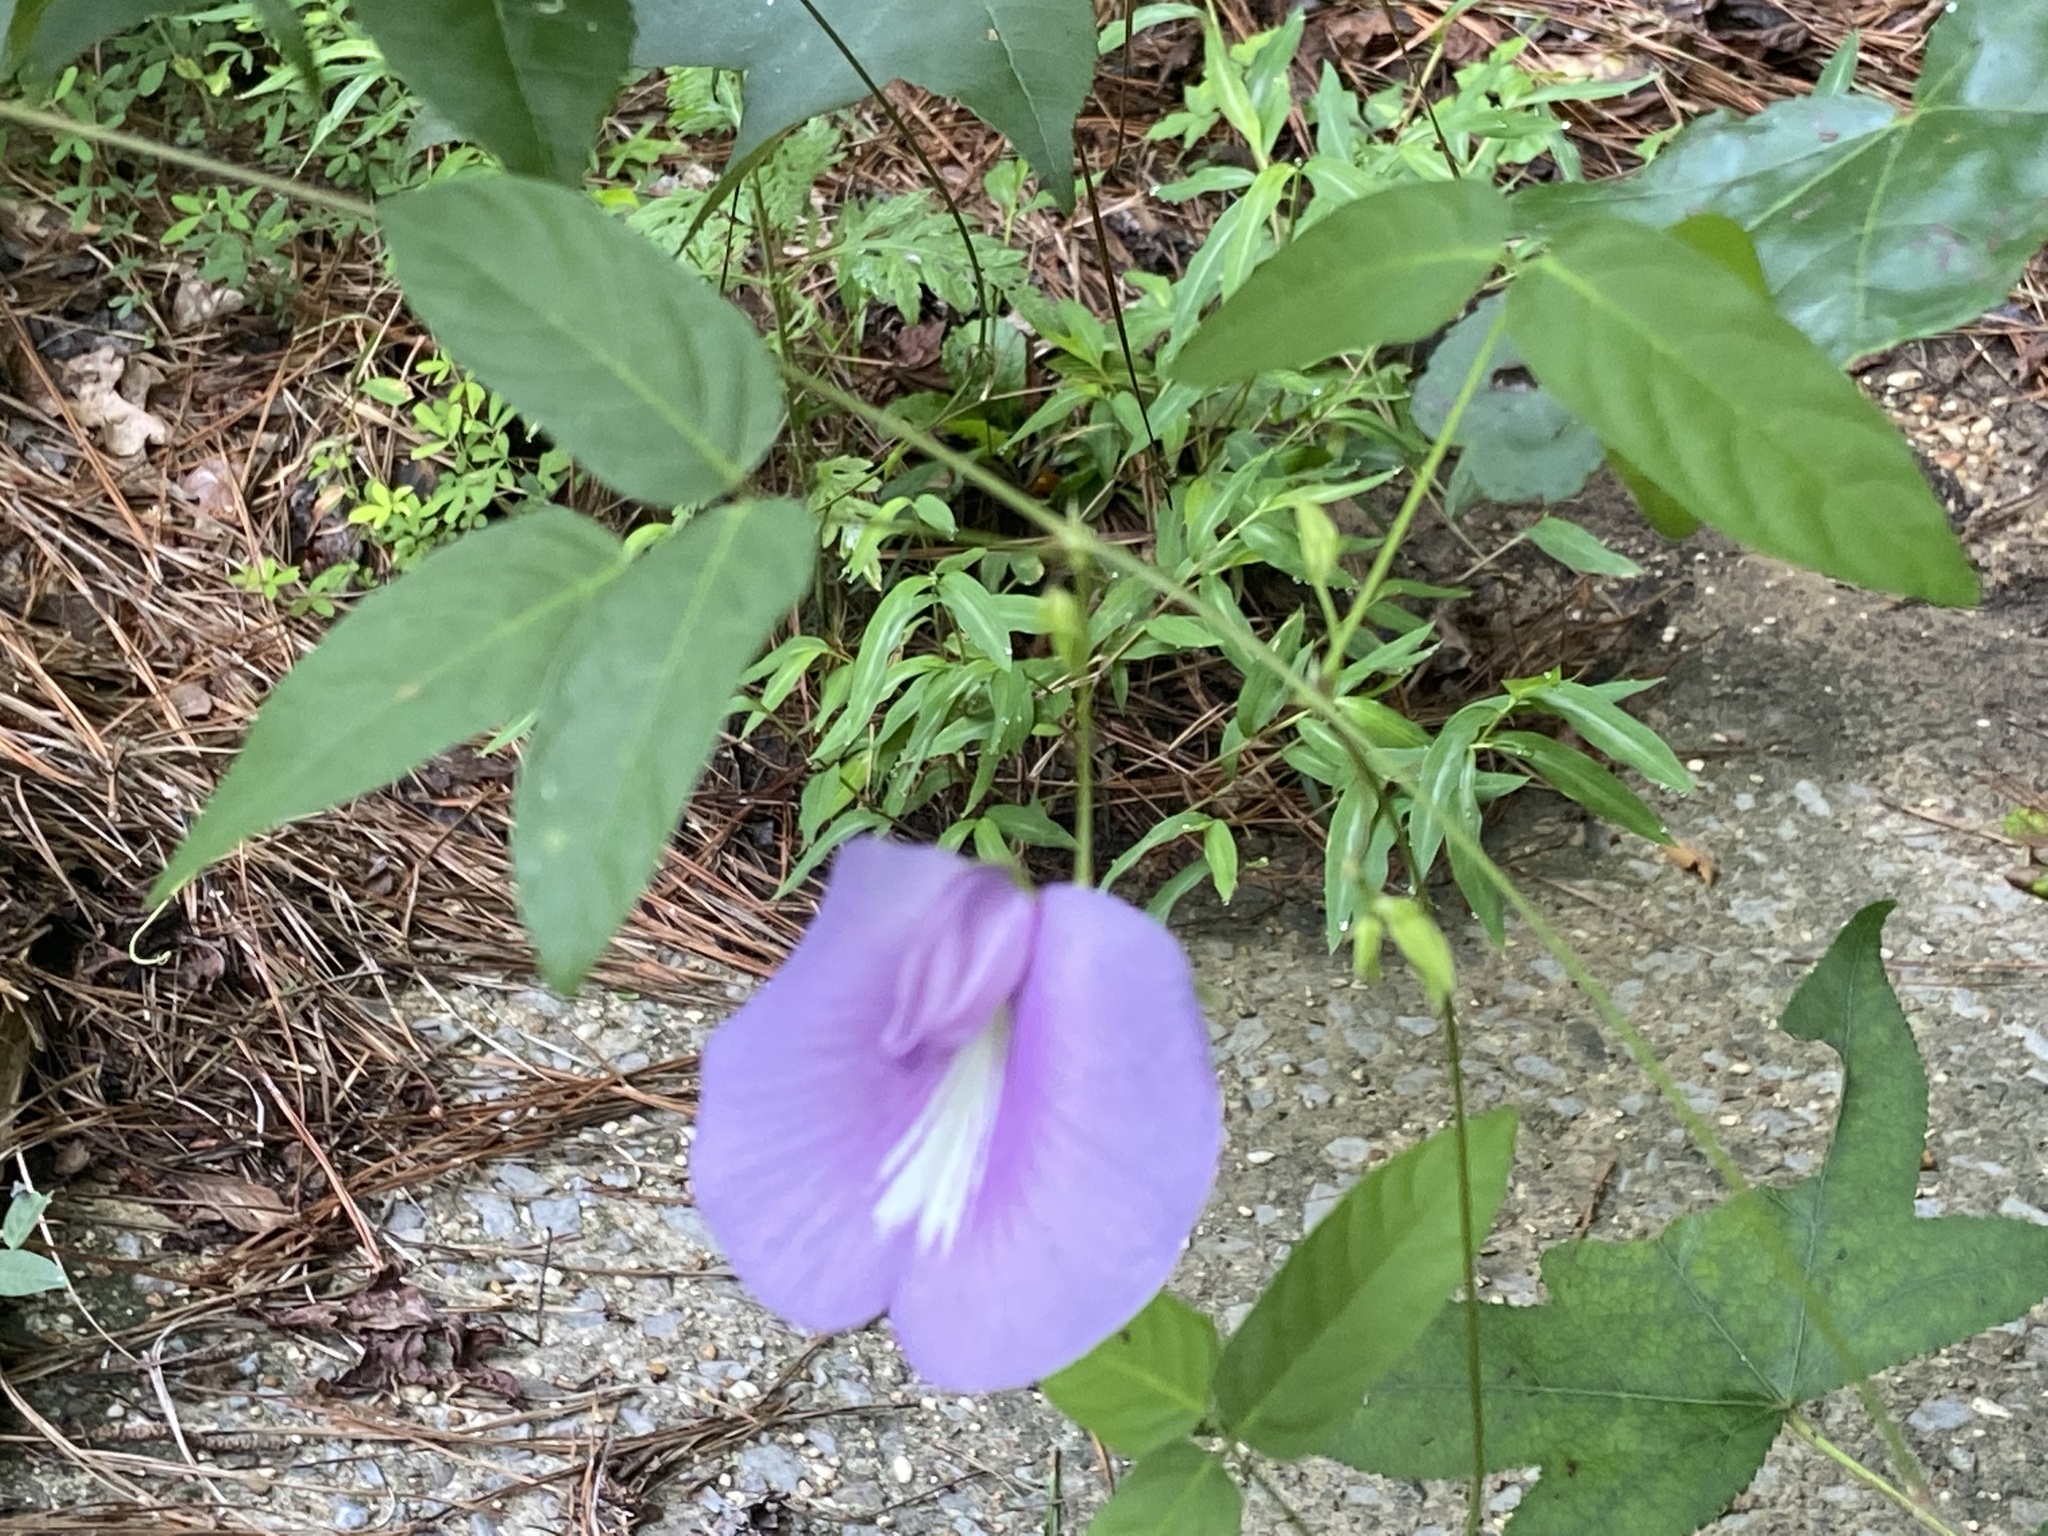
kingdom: Plantae
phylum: Tracheophyta
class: Magnoliopsida
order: Fabales
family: Fabaceae
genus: Centrosema
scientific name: Centrosema virginianum
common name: Butterfly-pea
